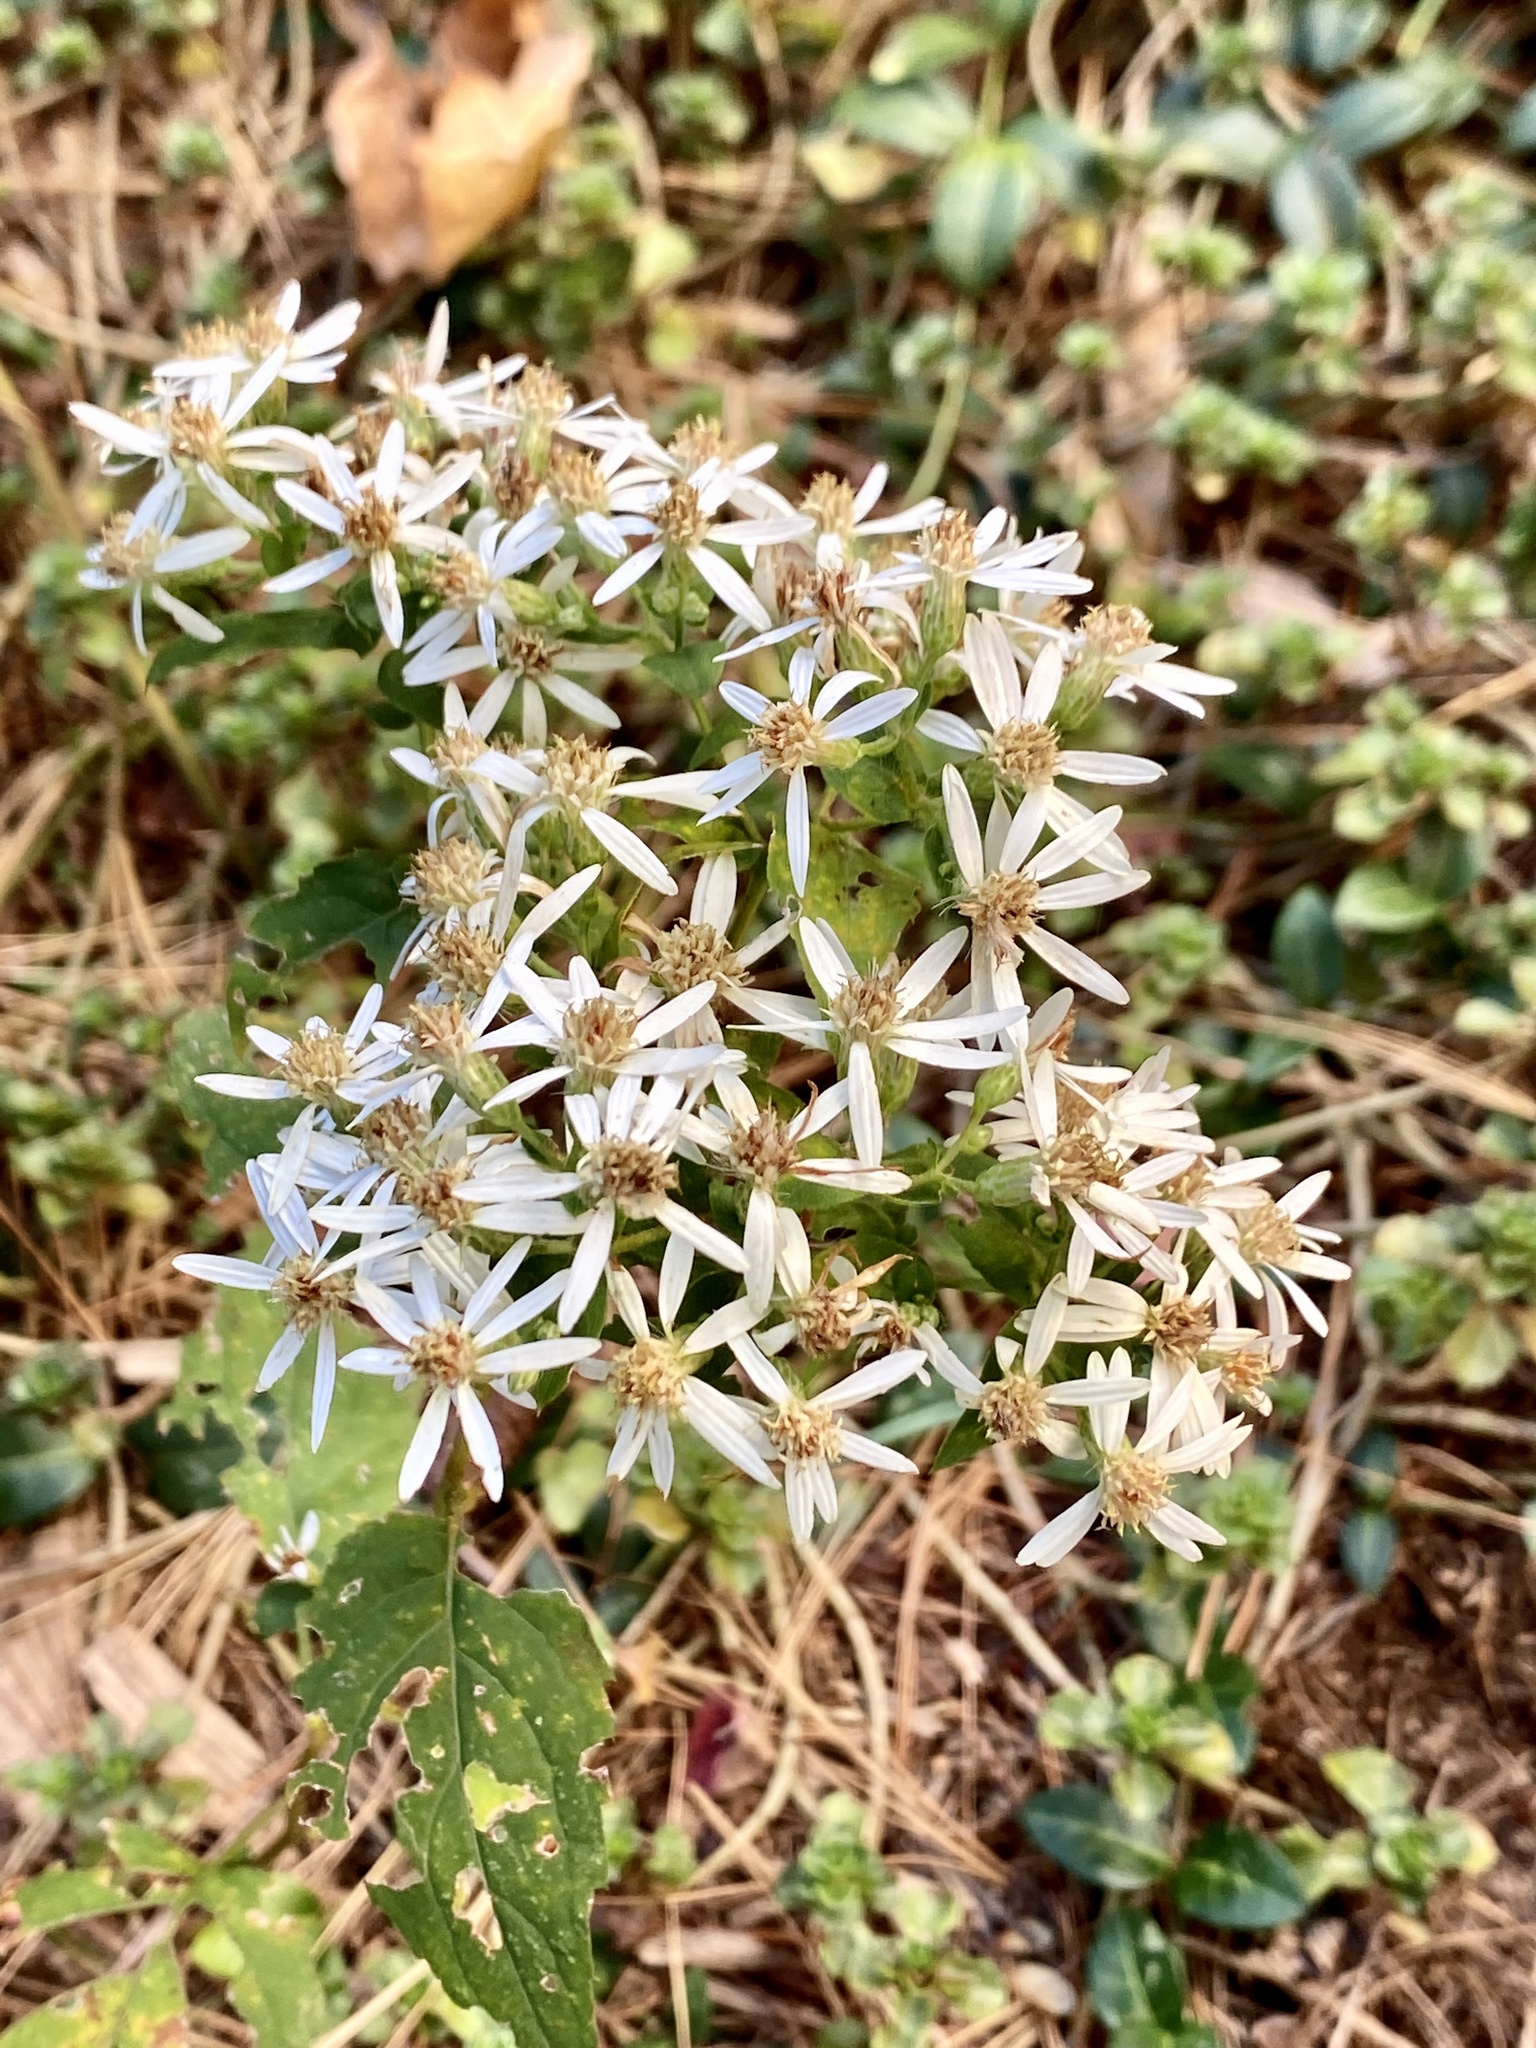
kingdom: Plantae
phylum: Tracheophyta
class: Magnoliopsida
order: Asterales
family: Asteraceae
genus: Eurybia
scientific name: Eurybia divaricata
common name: White wood aster
